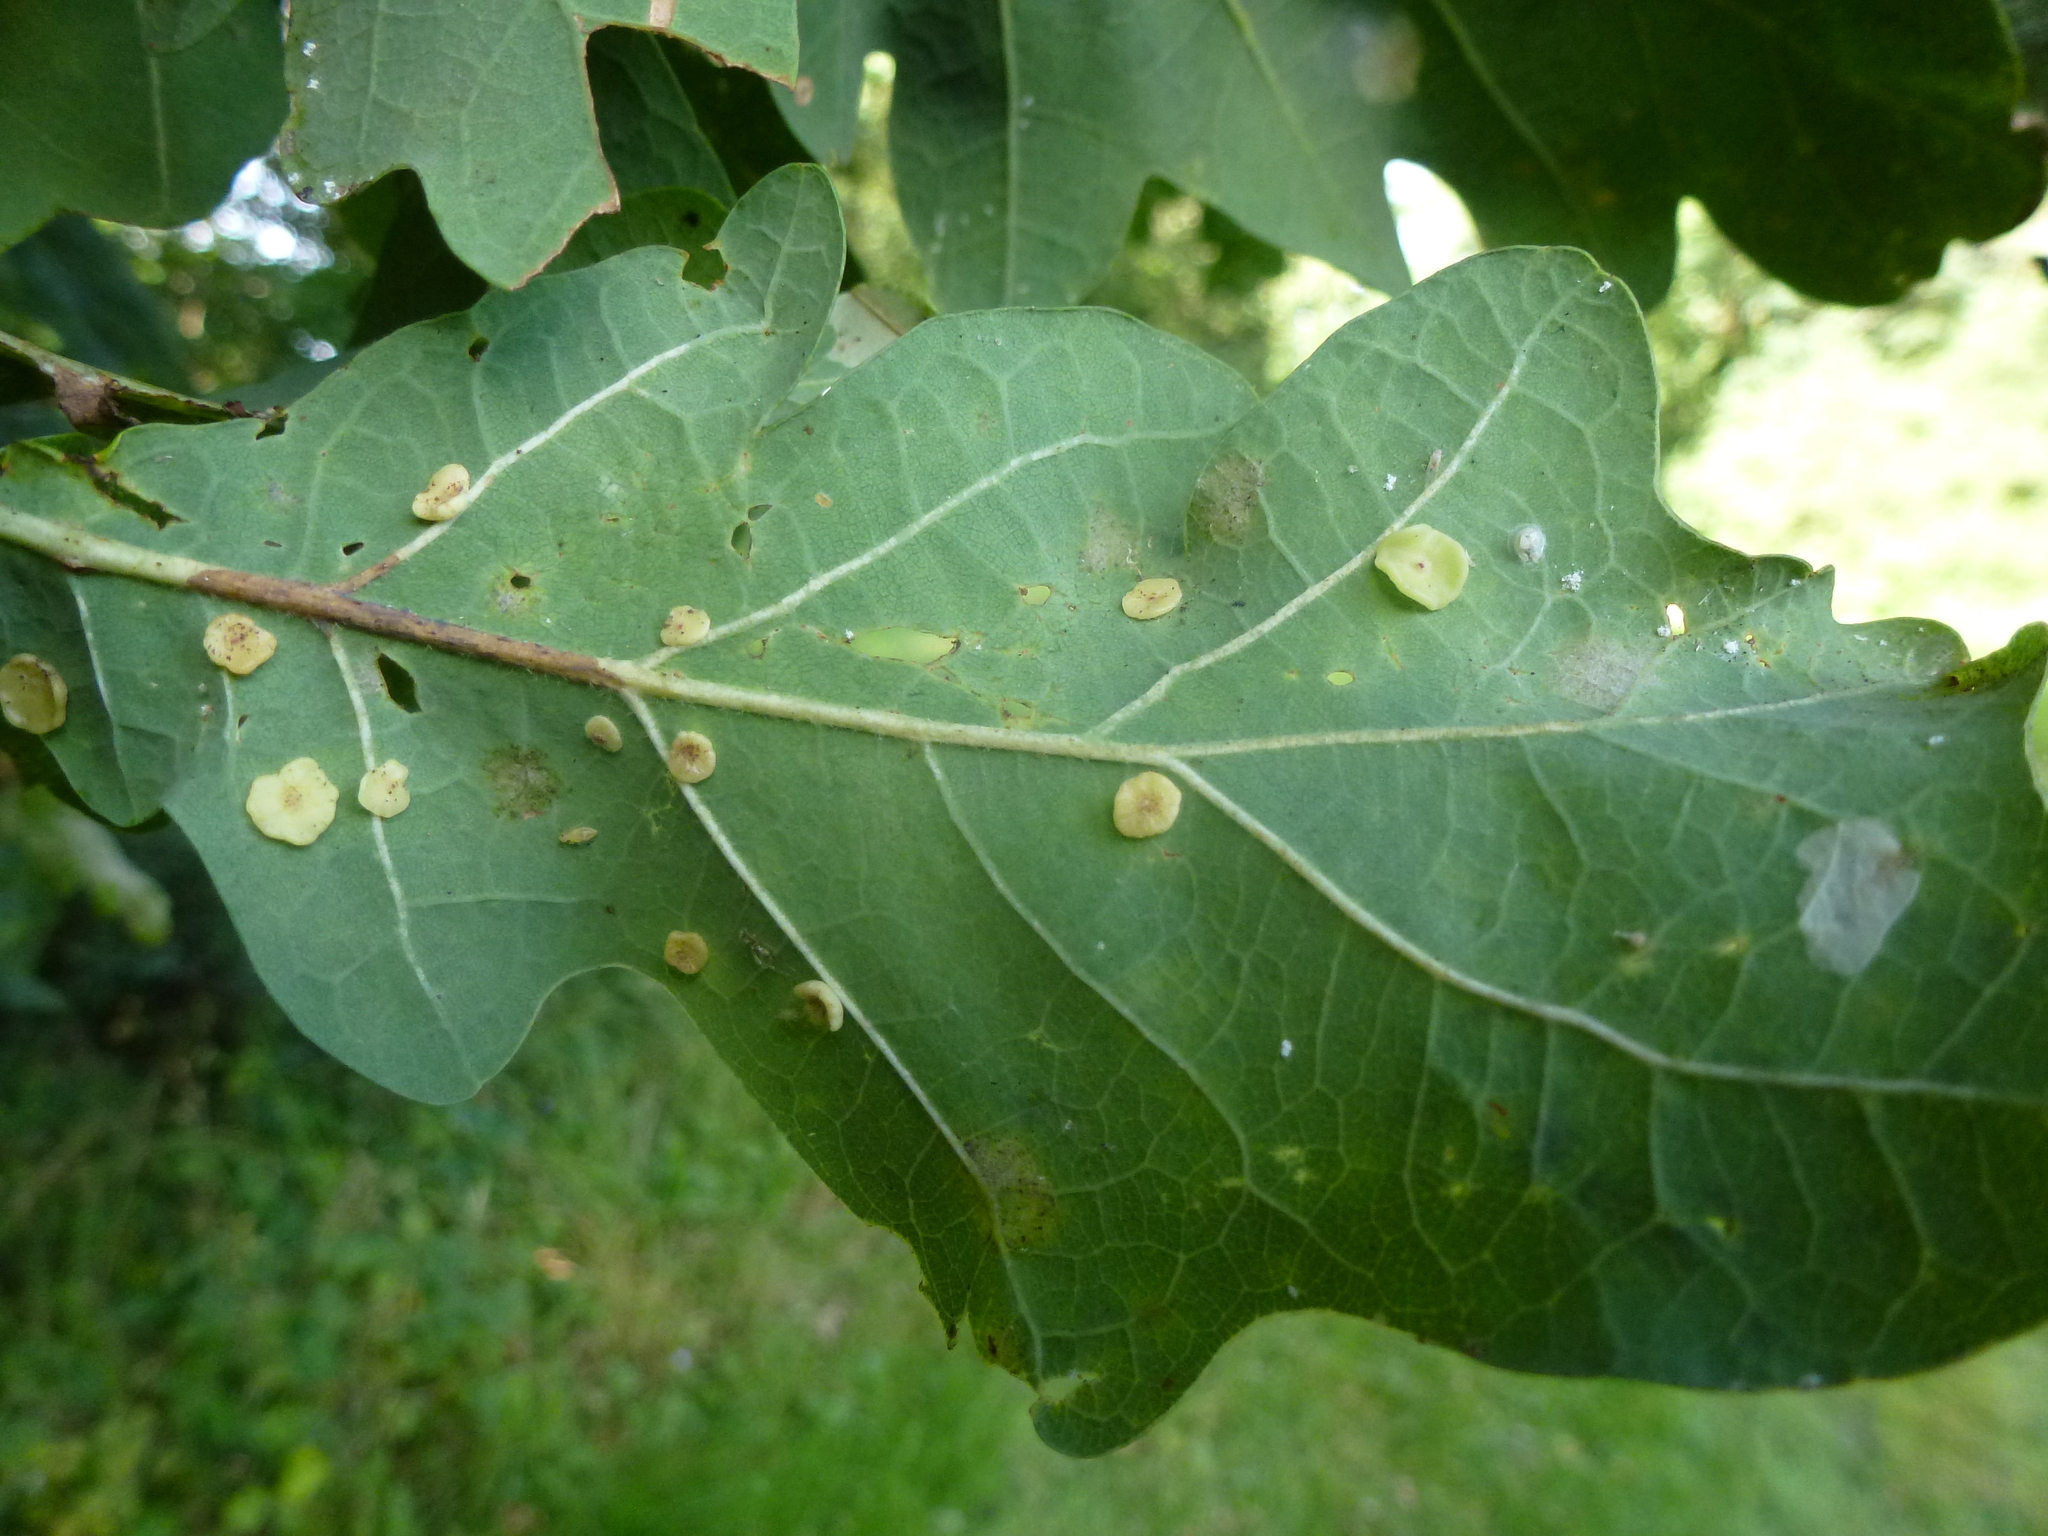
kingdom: Animalia
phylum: Arthropoda
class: Insecta
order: Hymenoptera
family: Cynipidae
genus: Neuroterus
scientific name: Neuroterus albipes
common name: Smooth spangle gall
